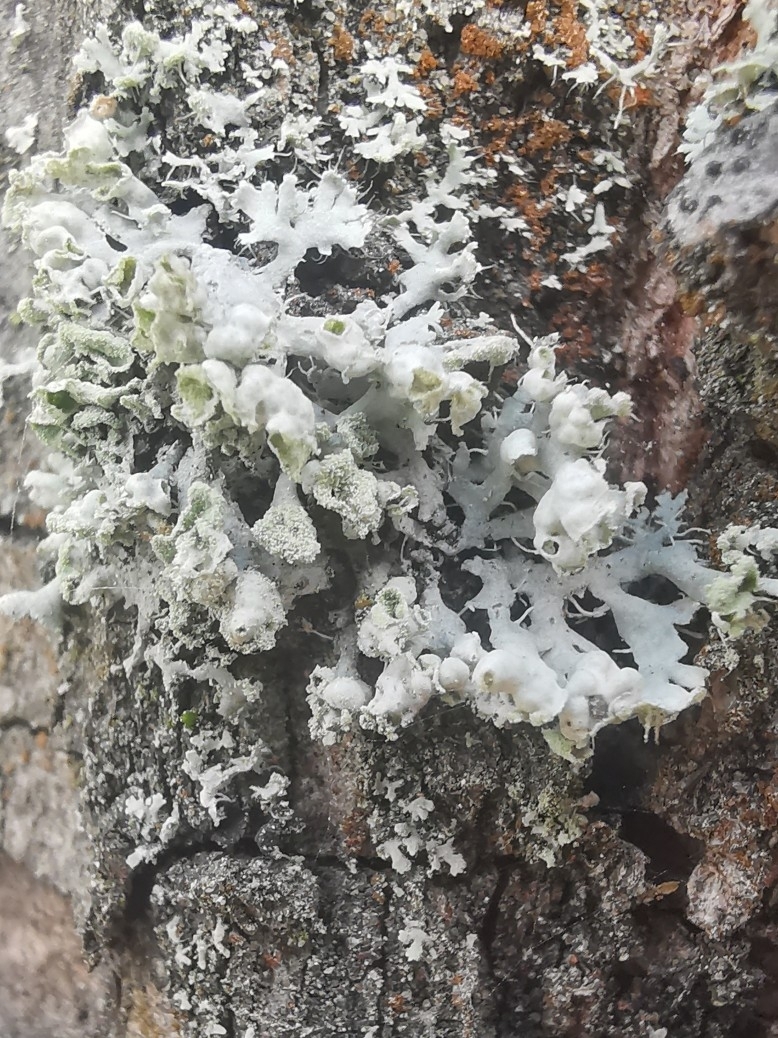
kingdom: Fungi
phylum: Ascomycota
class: Lecanoromycetes
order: Caliciales
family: Physciaceae
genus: Physcia
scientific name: Physcia adscendens
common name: Hooded rosette lichen
